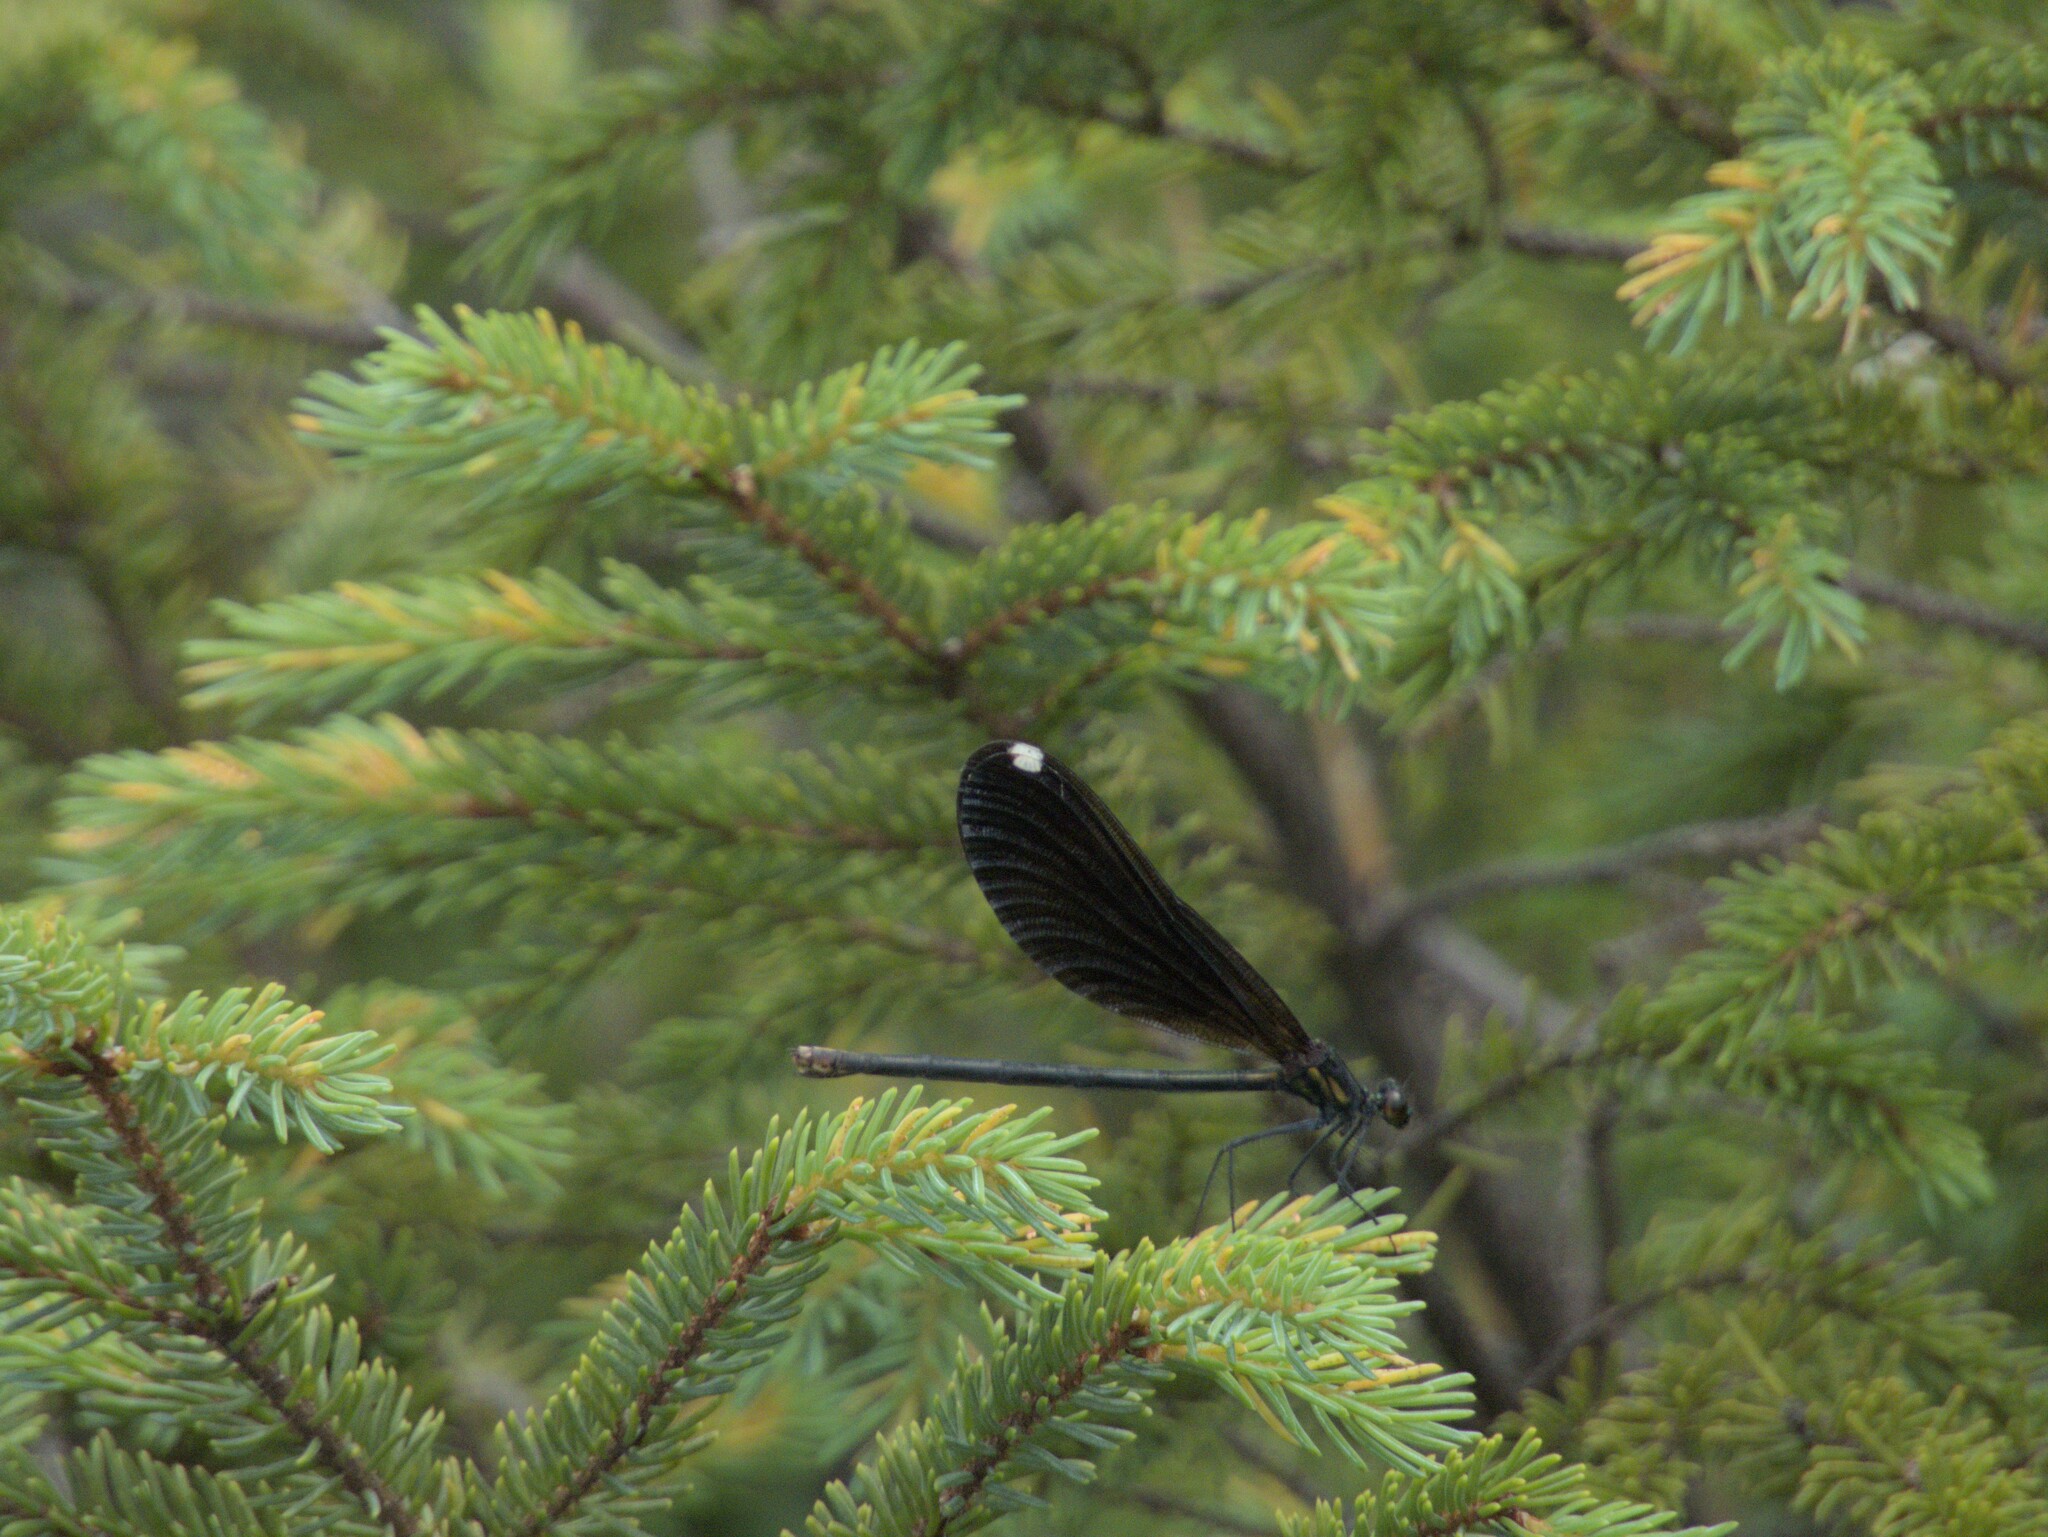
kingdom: Animalia
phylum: Arthropoda
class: Insecta
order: Odonata
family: Calopterygidae
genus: Calopteryx
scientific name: Calopteryx maculata
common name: Ebony jewelwing
